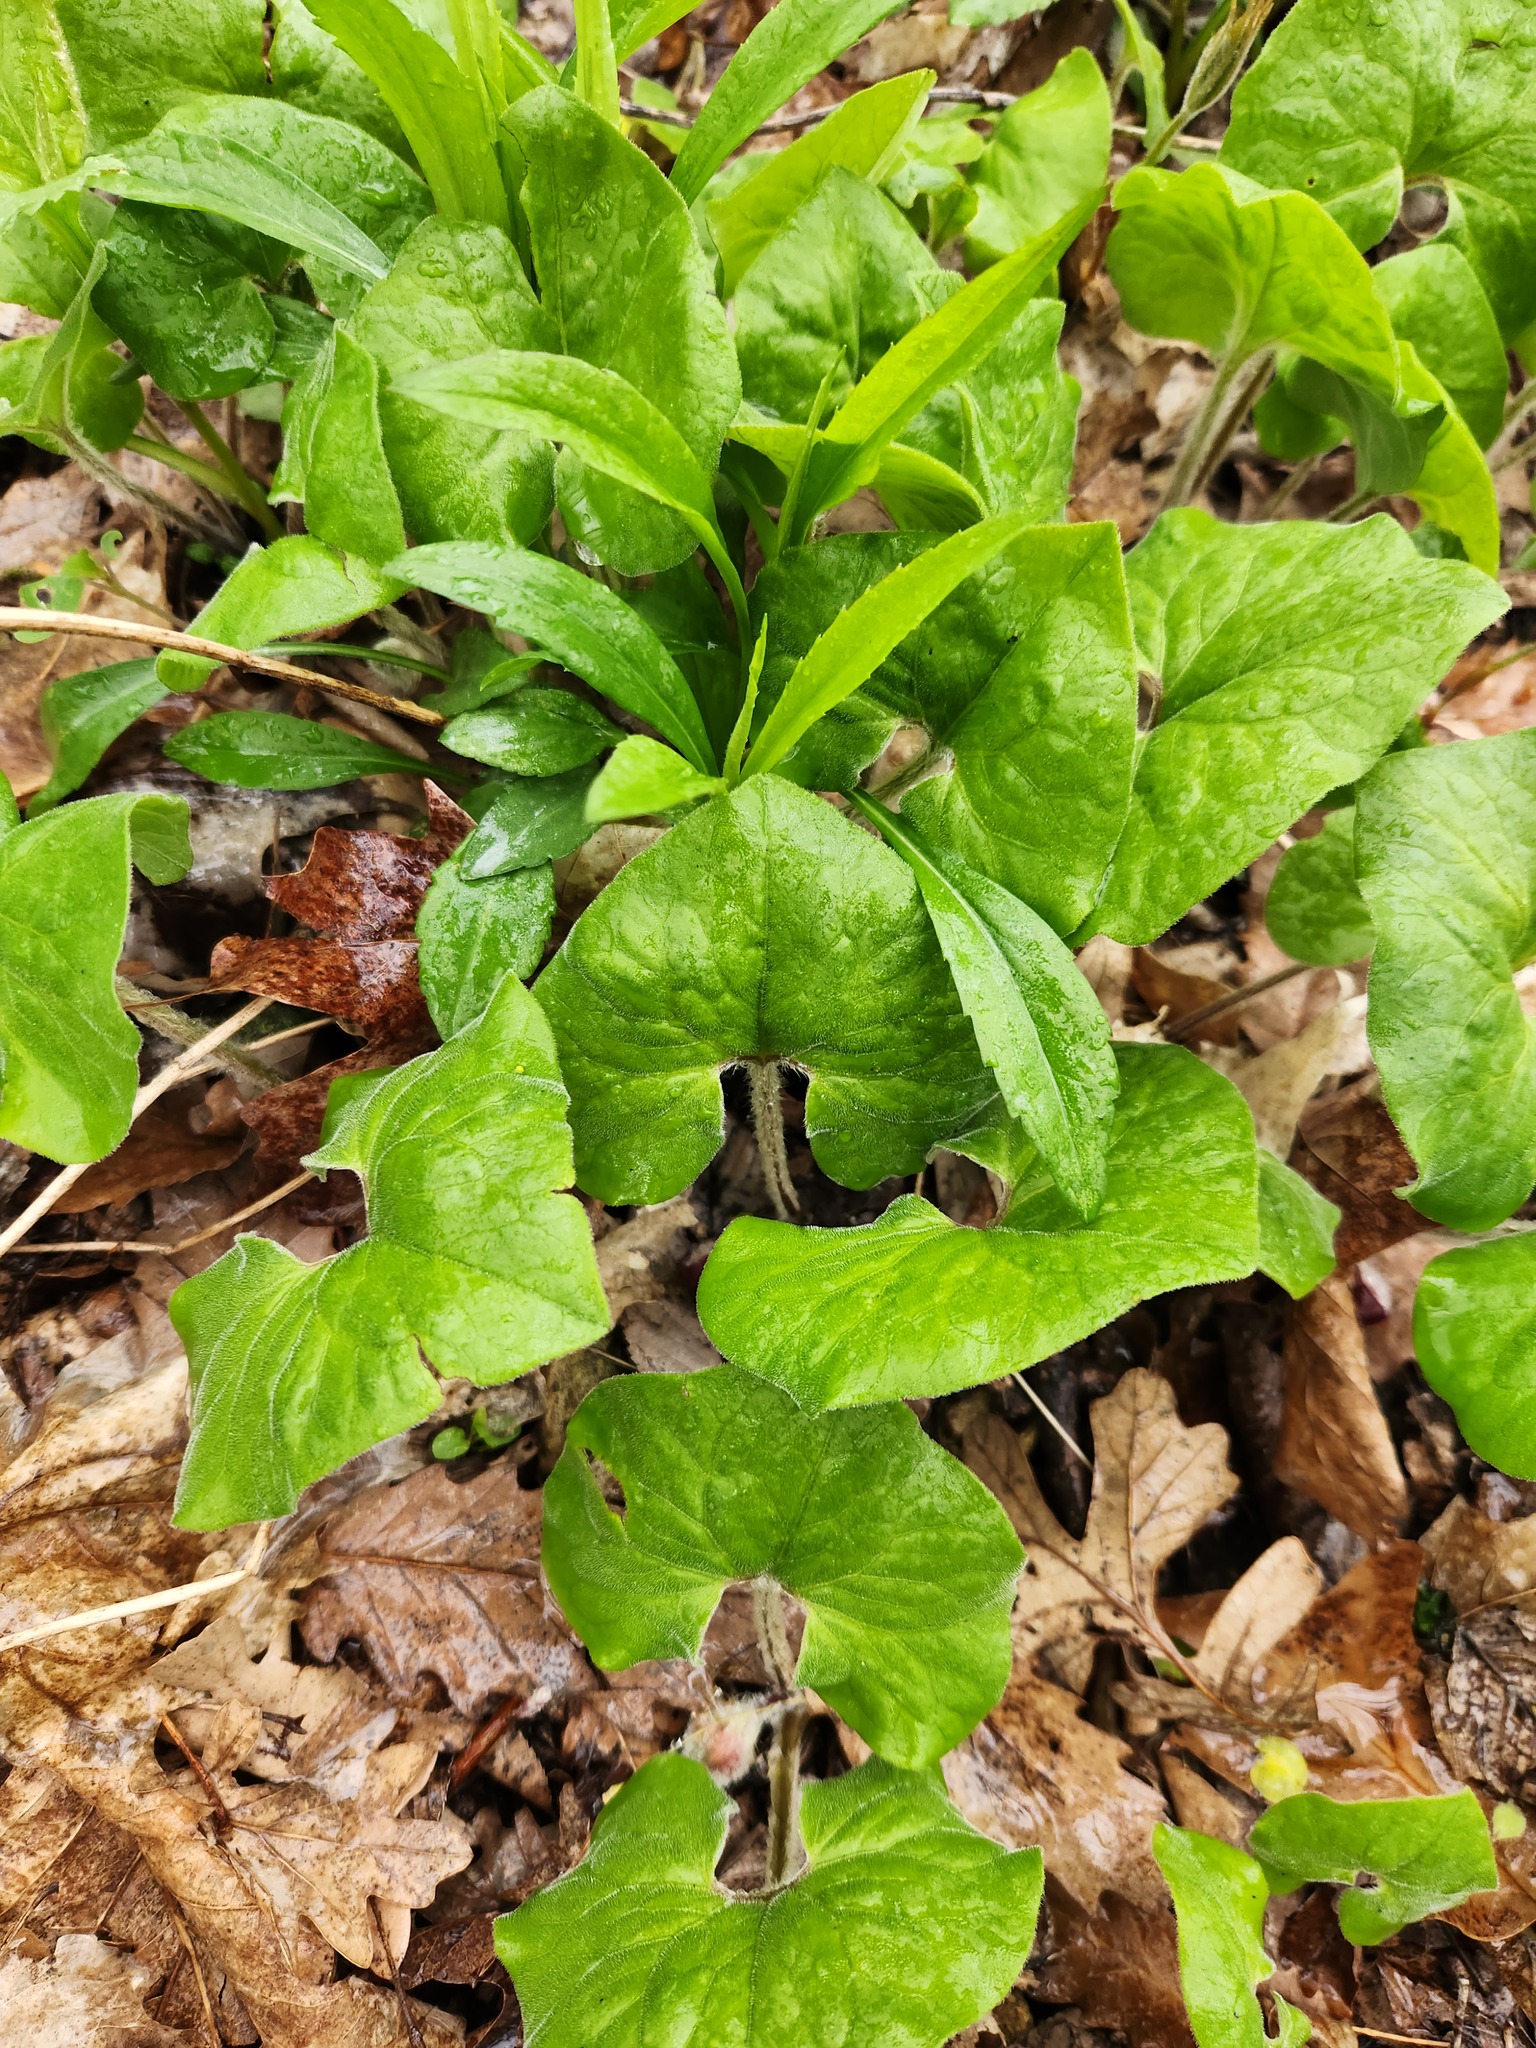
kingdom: Plantae
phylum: Tracheophyta
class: Magnoliopsida
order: Piperales
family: Aristolochiaceae
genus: Asarum
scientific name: Asarum canadense
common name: Wild ginger
